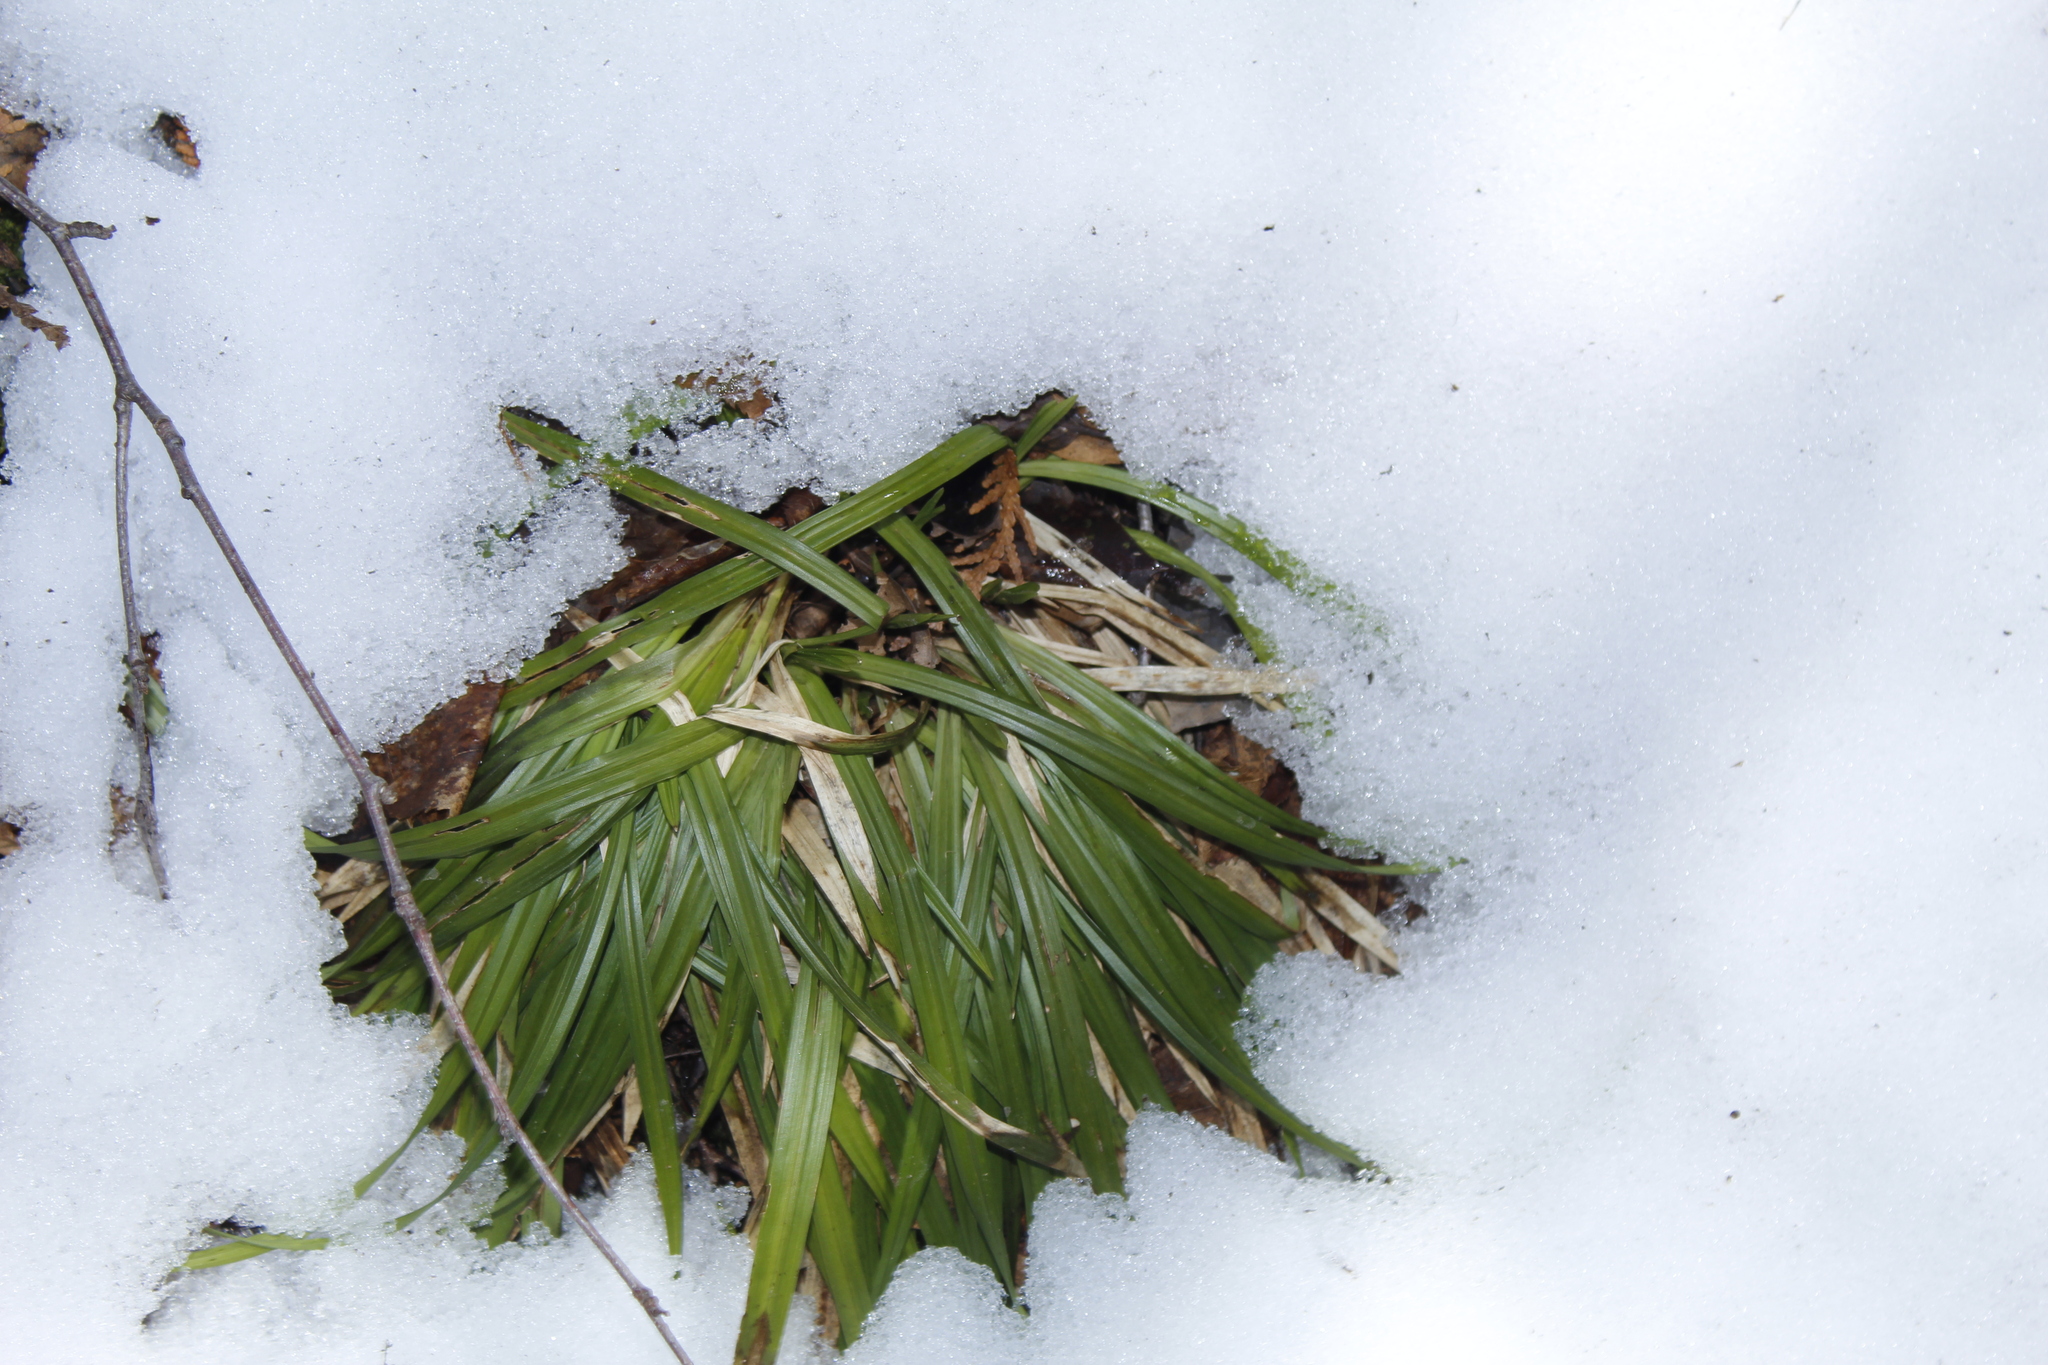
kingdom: Plantae
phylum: Tracheophyta
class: Liliopsida
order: Poales
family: Cyperaceae
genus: Carex
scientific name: Carex
